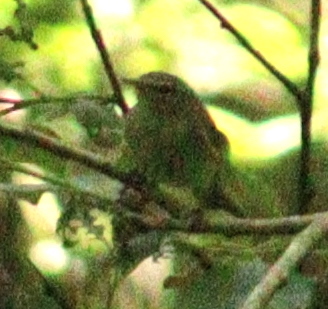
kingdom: Animalia
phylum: Chordata
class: Aves
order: Passeriformes
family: Phylloscopidae
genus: Phylloscopus
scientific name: Phylloscopus collybita
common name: Common chiffchaff
